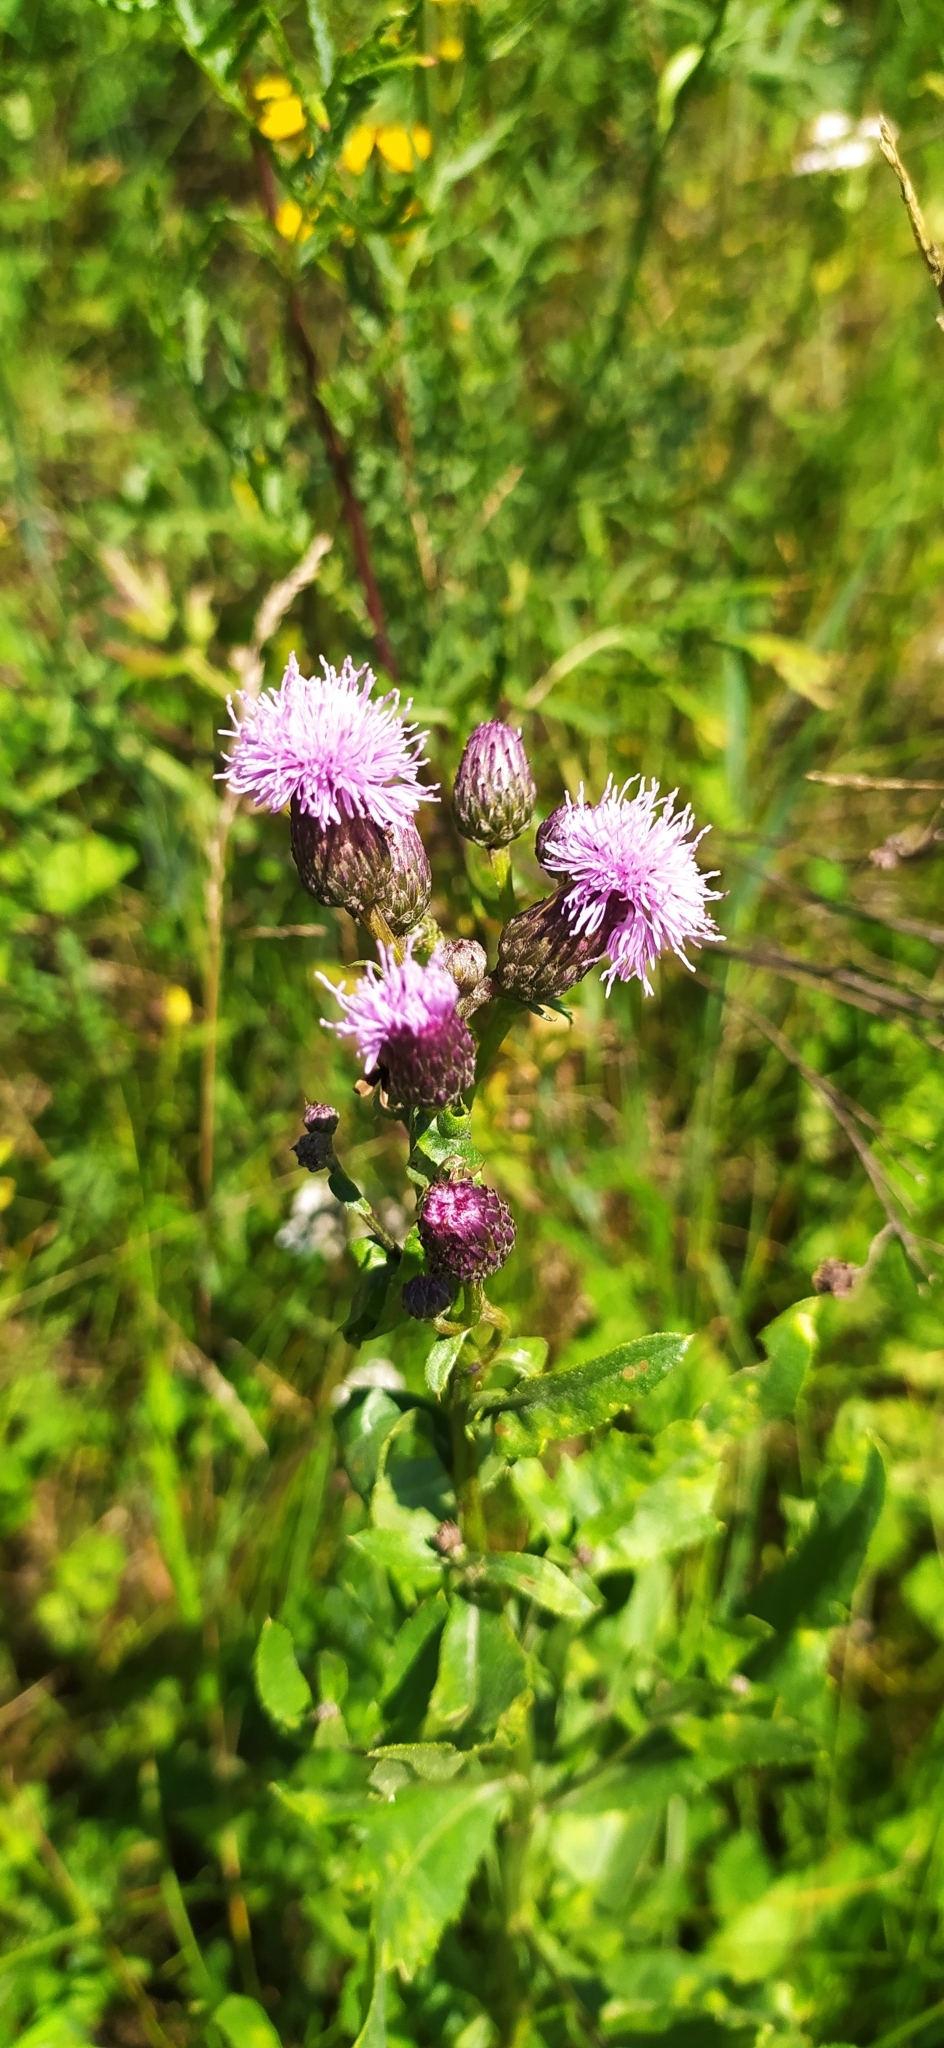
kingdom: Plantae
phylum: Tracheophyta
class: Magnoliopsida
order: Asterales
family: Asteraceae
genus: Cirsium
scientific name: Cirsium arvense
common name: Creeping thistle
